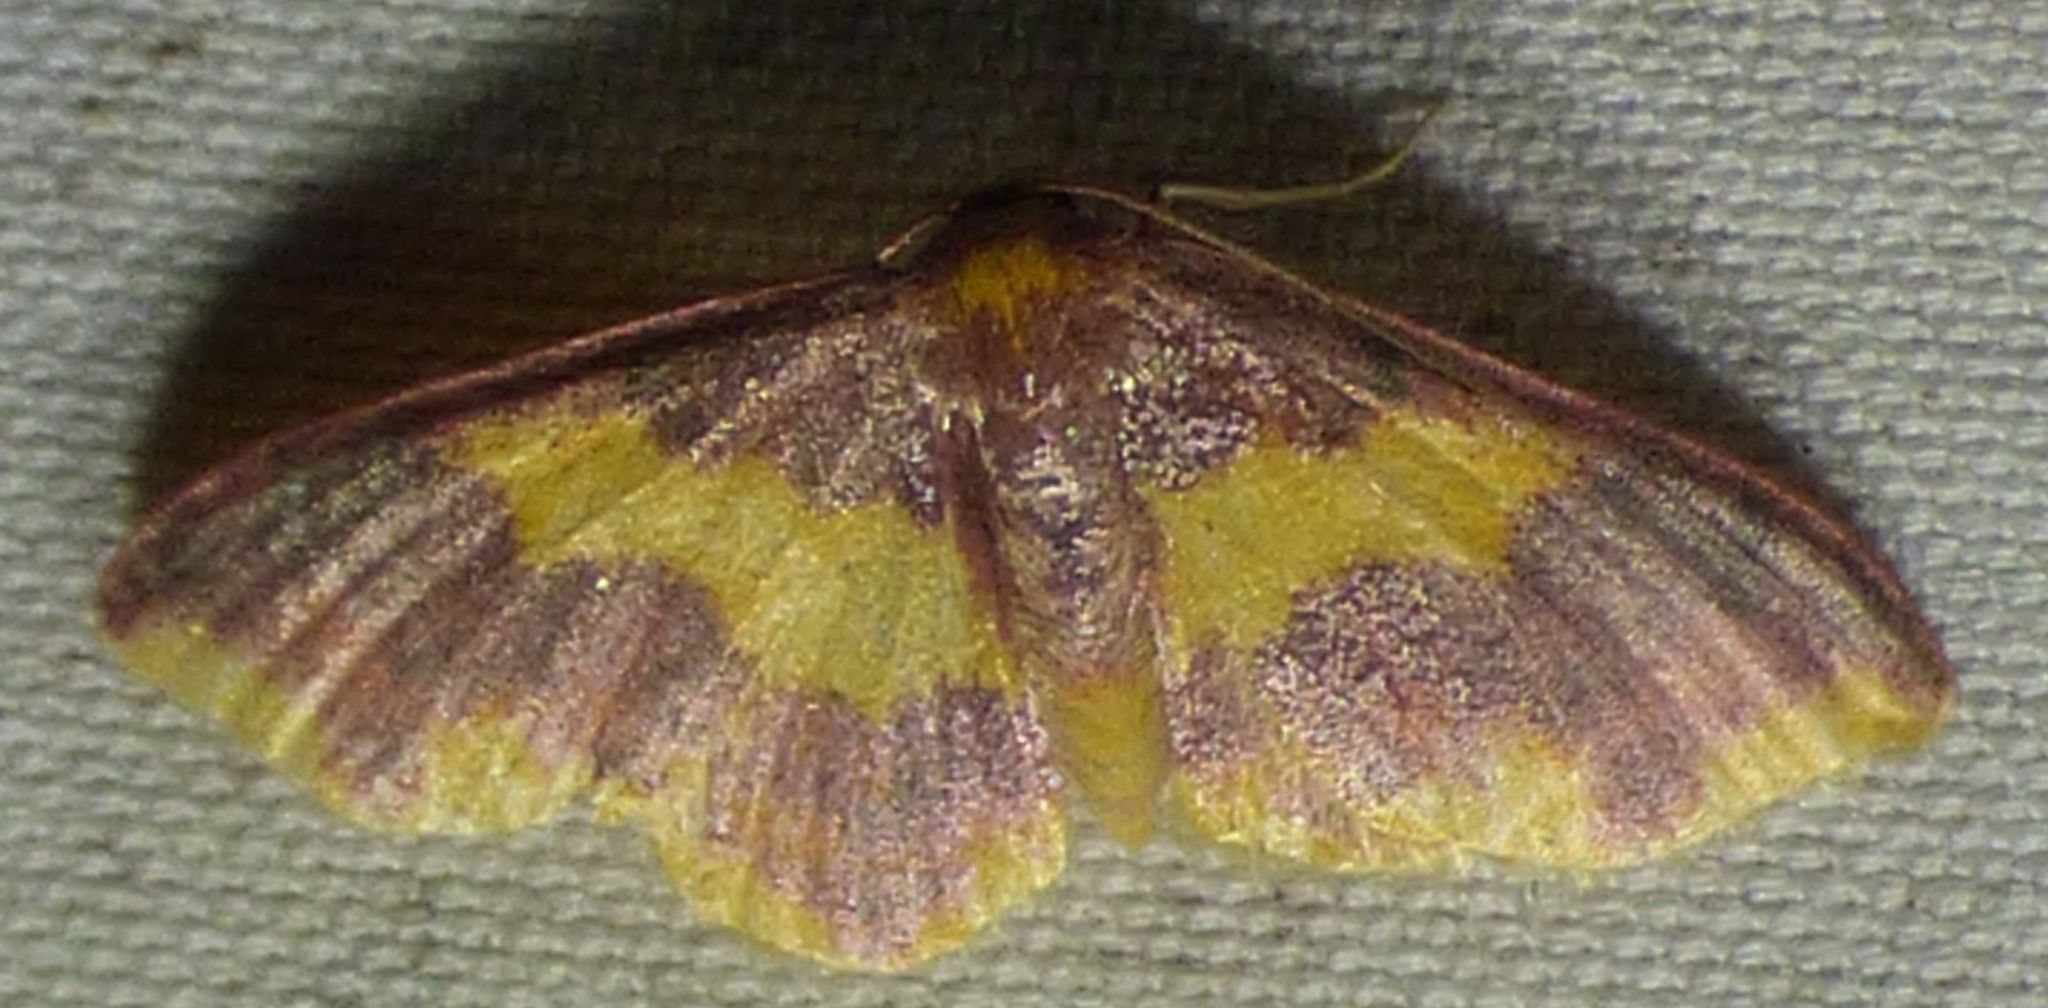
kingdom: Animalia
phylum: Arthropoda
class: Insecta
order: Lepidoptera
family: Geometridae
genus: Lophosis
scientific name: Lophosis labeculata
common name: Stained lophosis moth
